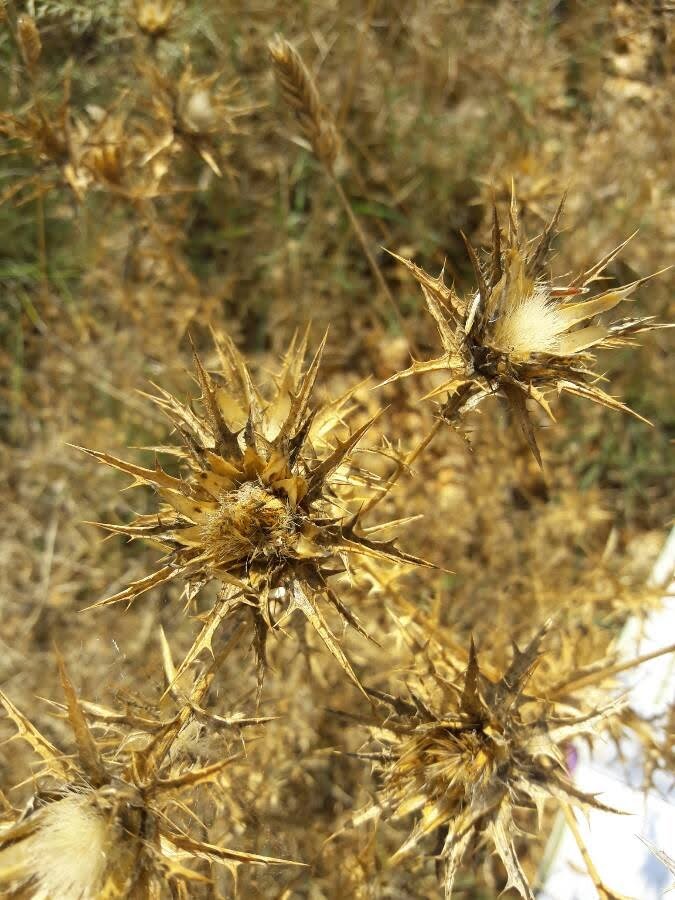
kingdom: Plantae
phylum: Tracheophyta
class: Magnoliopsida
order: Asterales
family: Asteraceae
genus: Carthamus
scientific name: Carthamus lanatus
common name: Downy safflower
